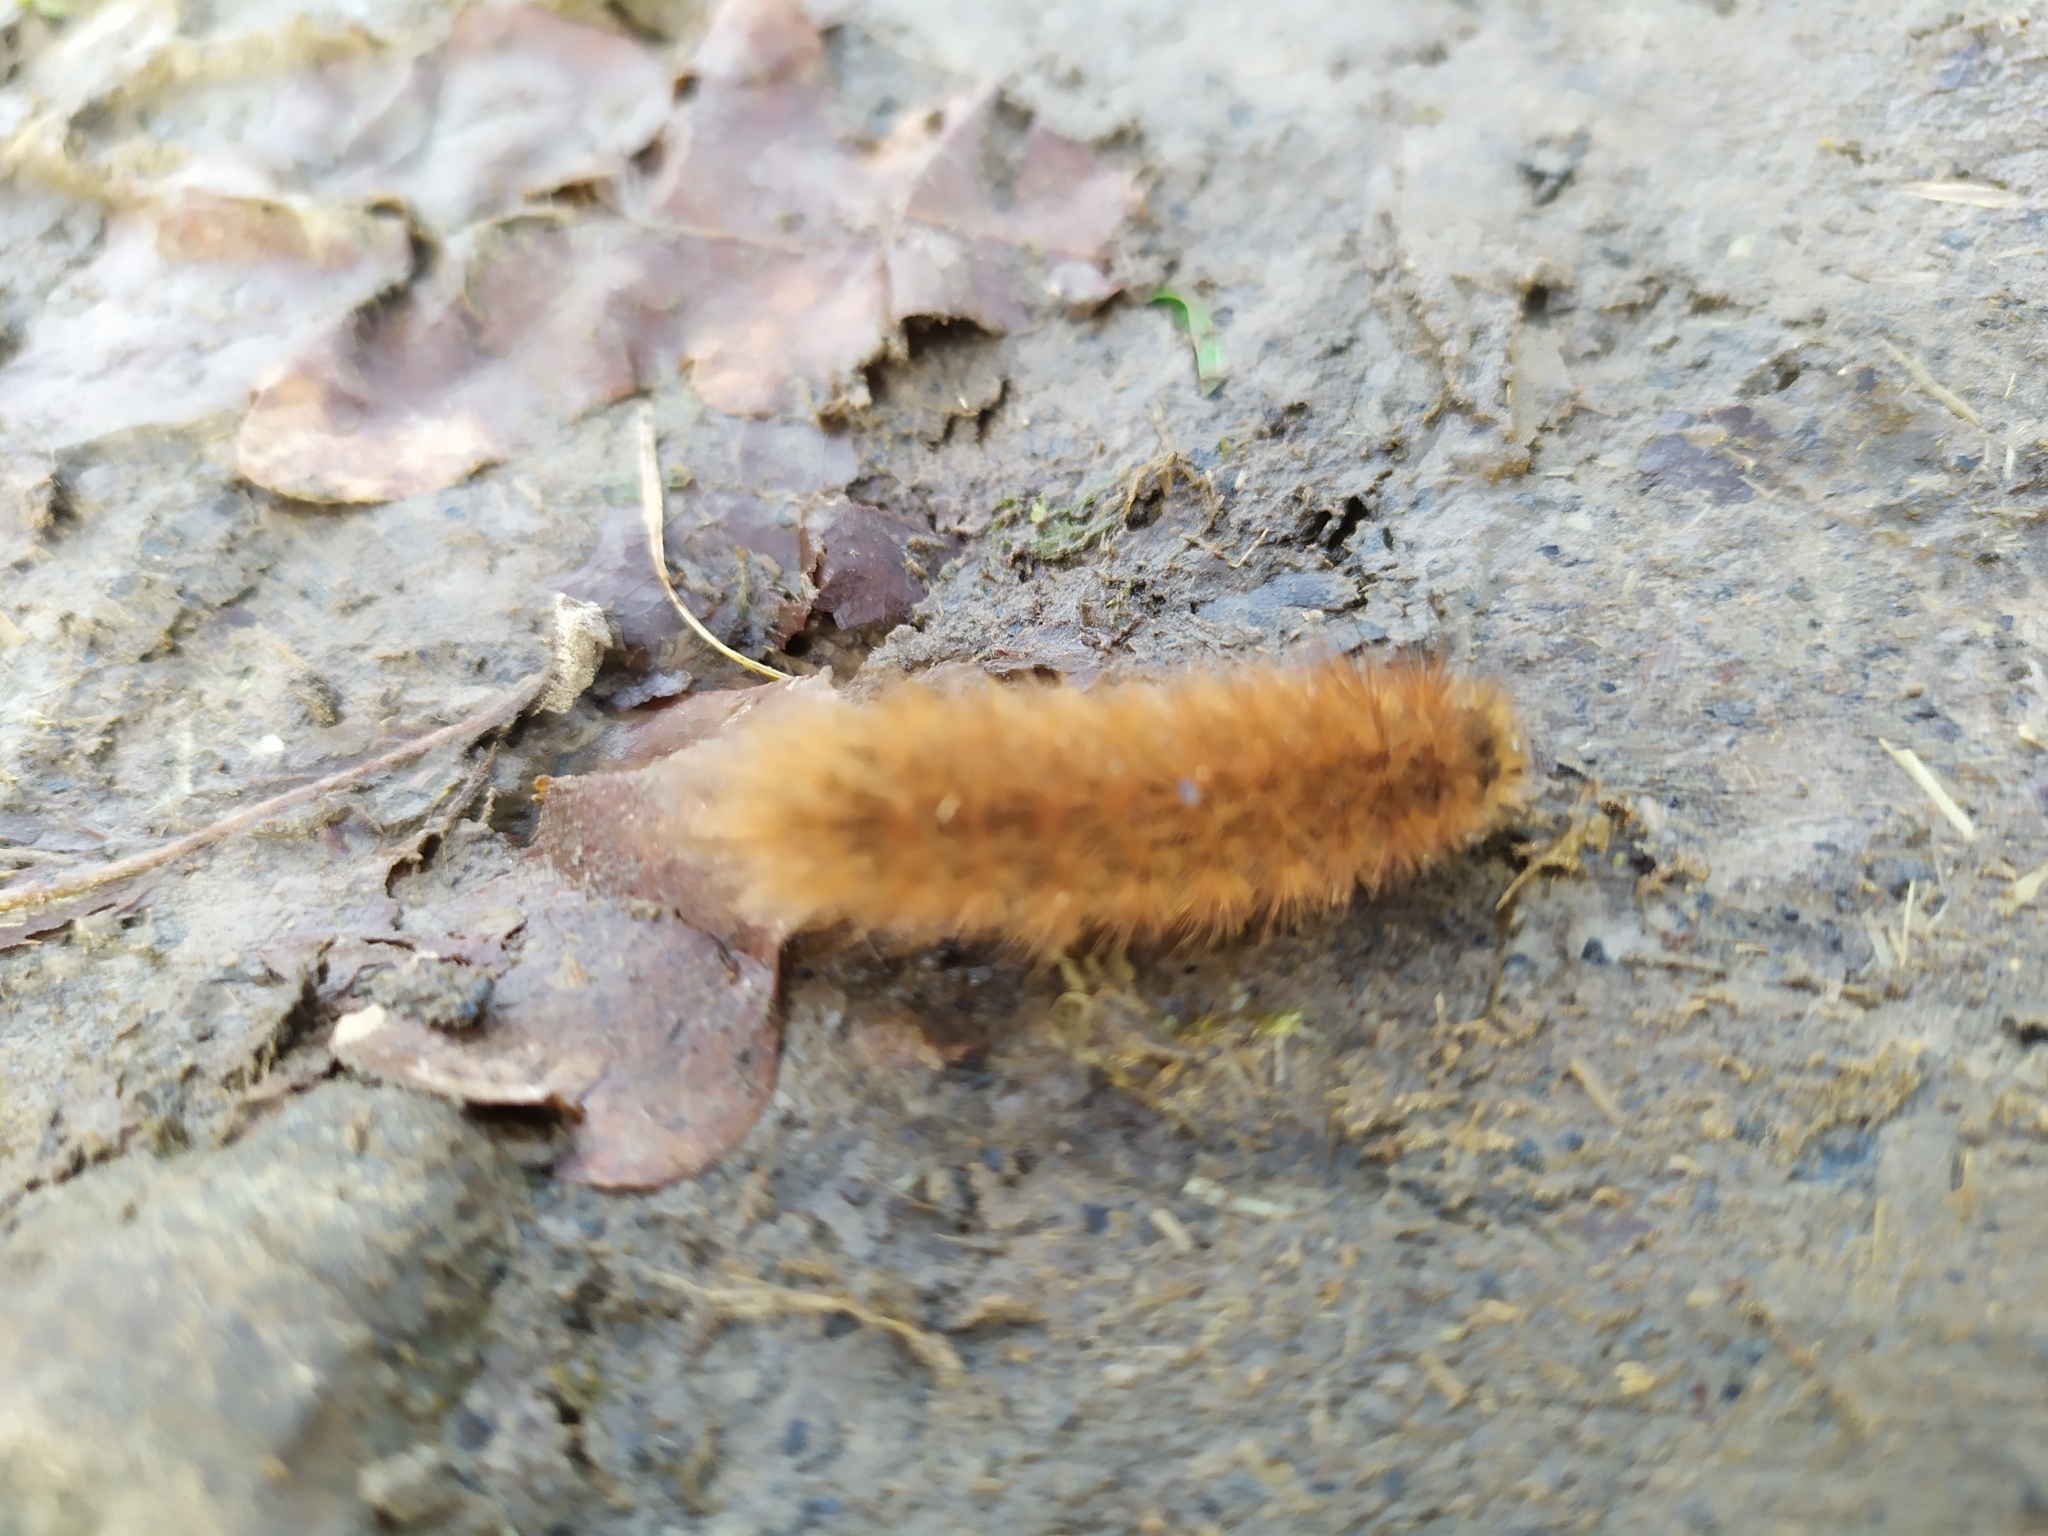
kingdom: Animalia
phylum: Arthropoda
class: Insecta
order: Lepidoptera
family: Erebidae
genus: Phragmatobia
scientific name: Phragmatobia fuliginosa
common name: Ruby tiger
